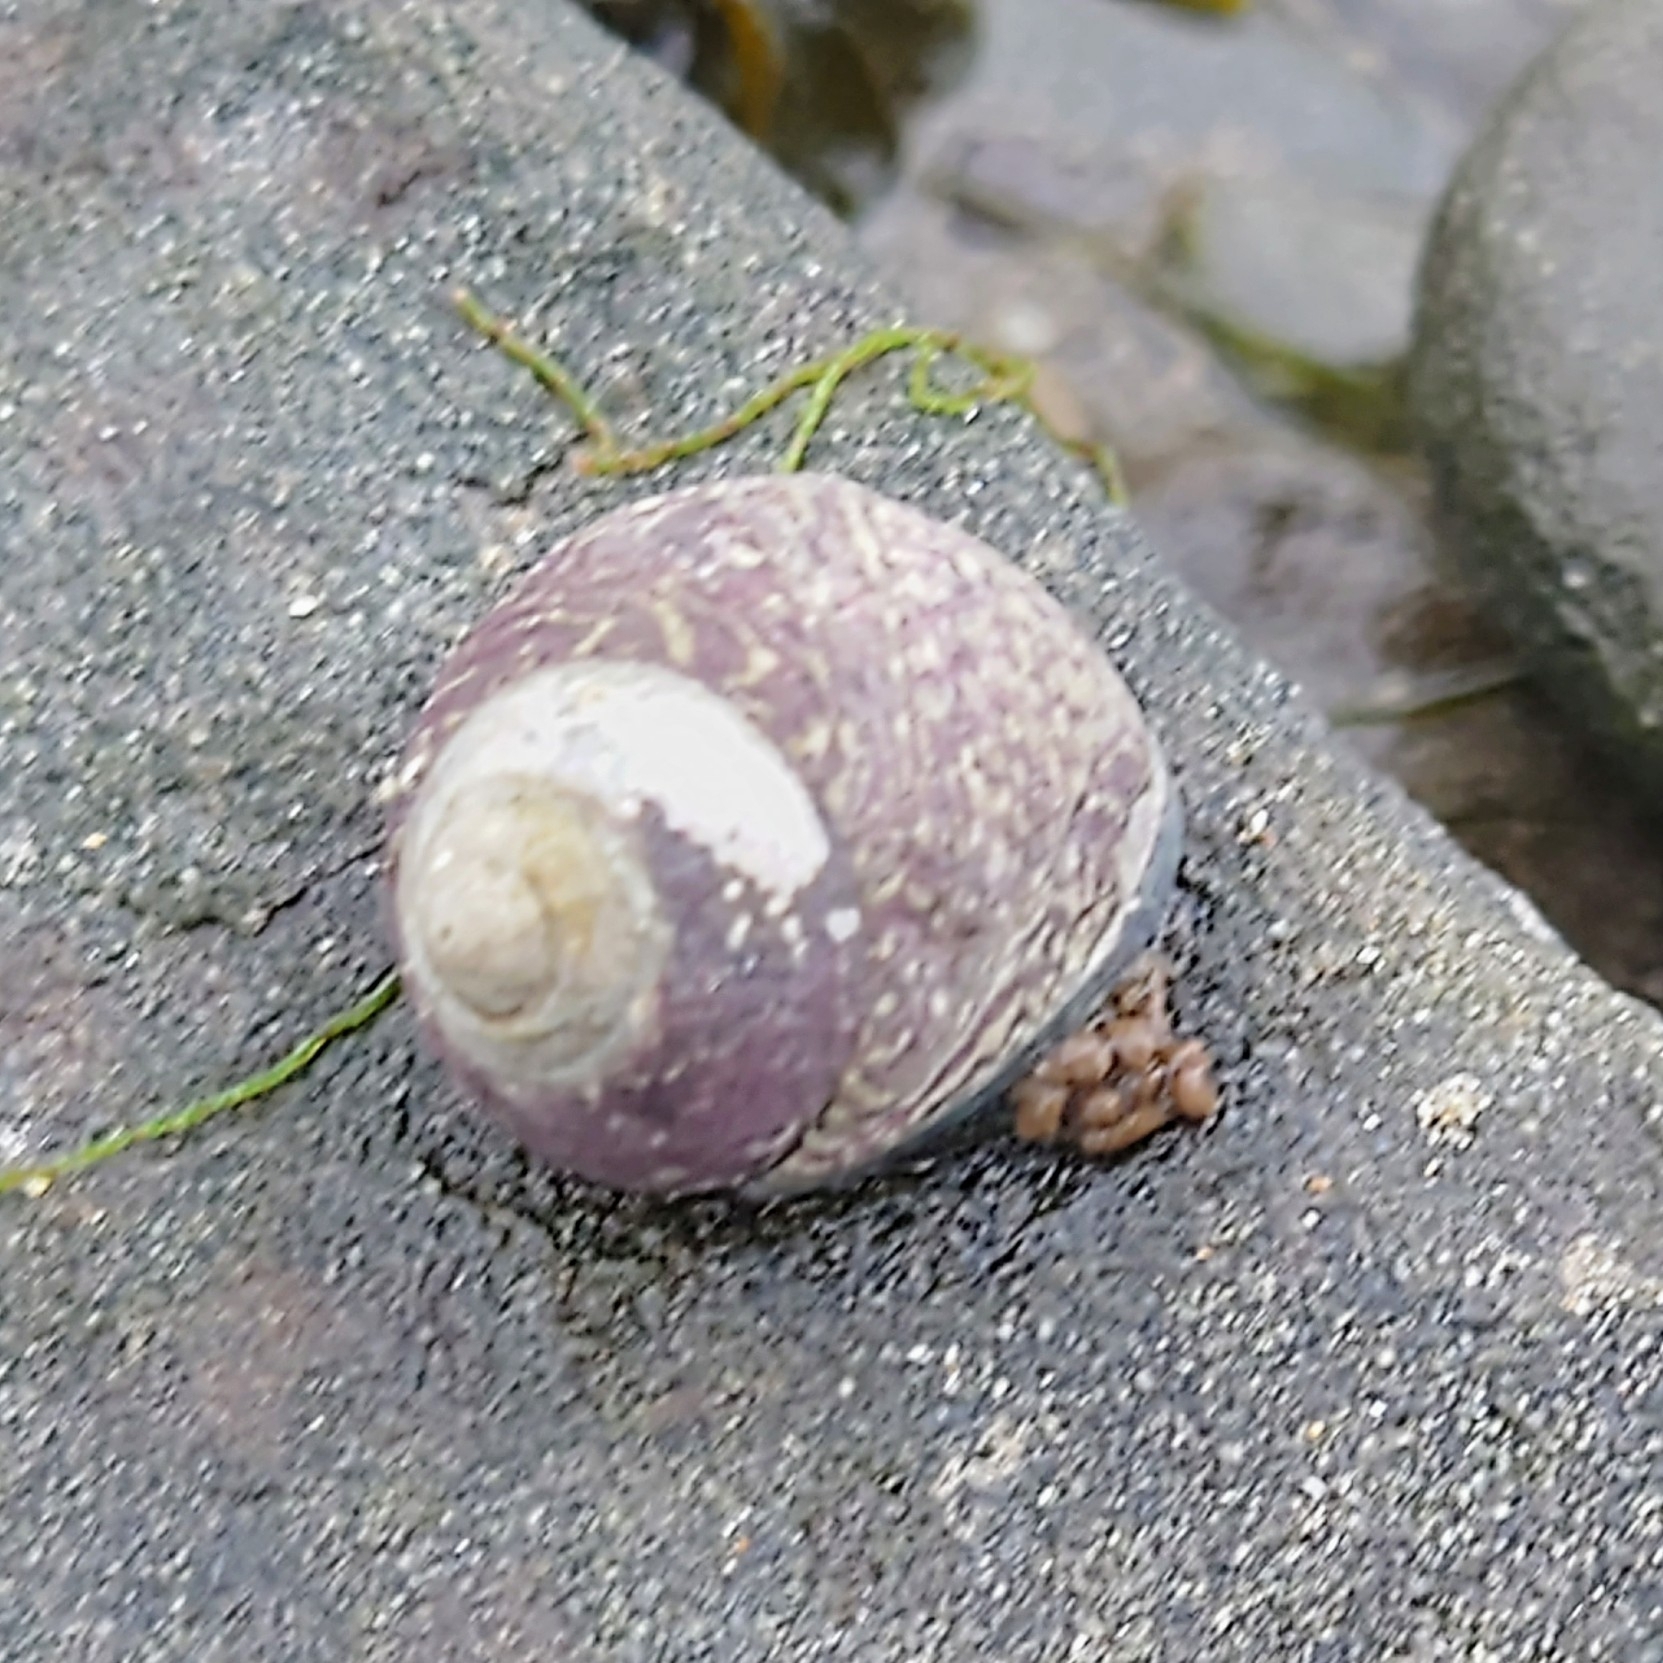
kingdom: Animalia
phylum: Mollusca
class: Gastropoda
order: Trochida
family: Trochidae
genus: Phorcus
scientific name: Phorcus lineatus
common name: Toothed top shell
